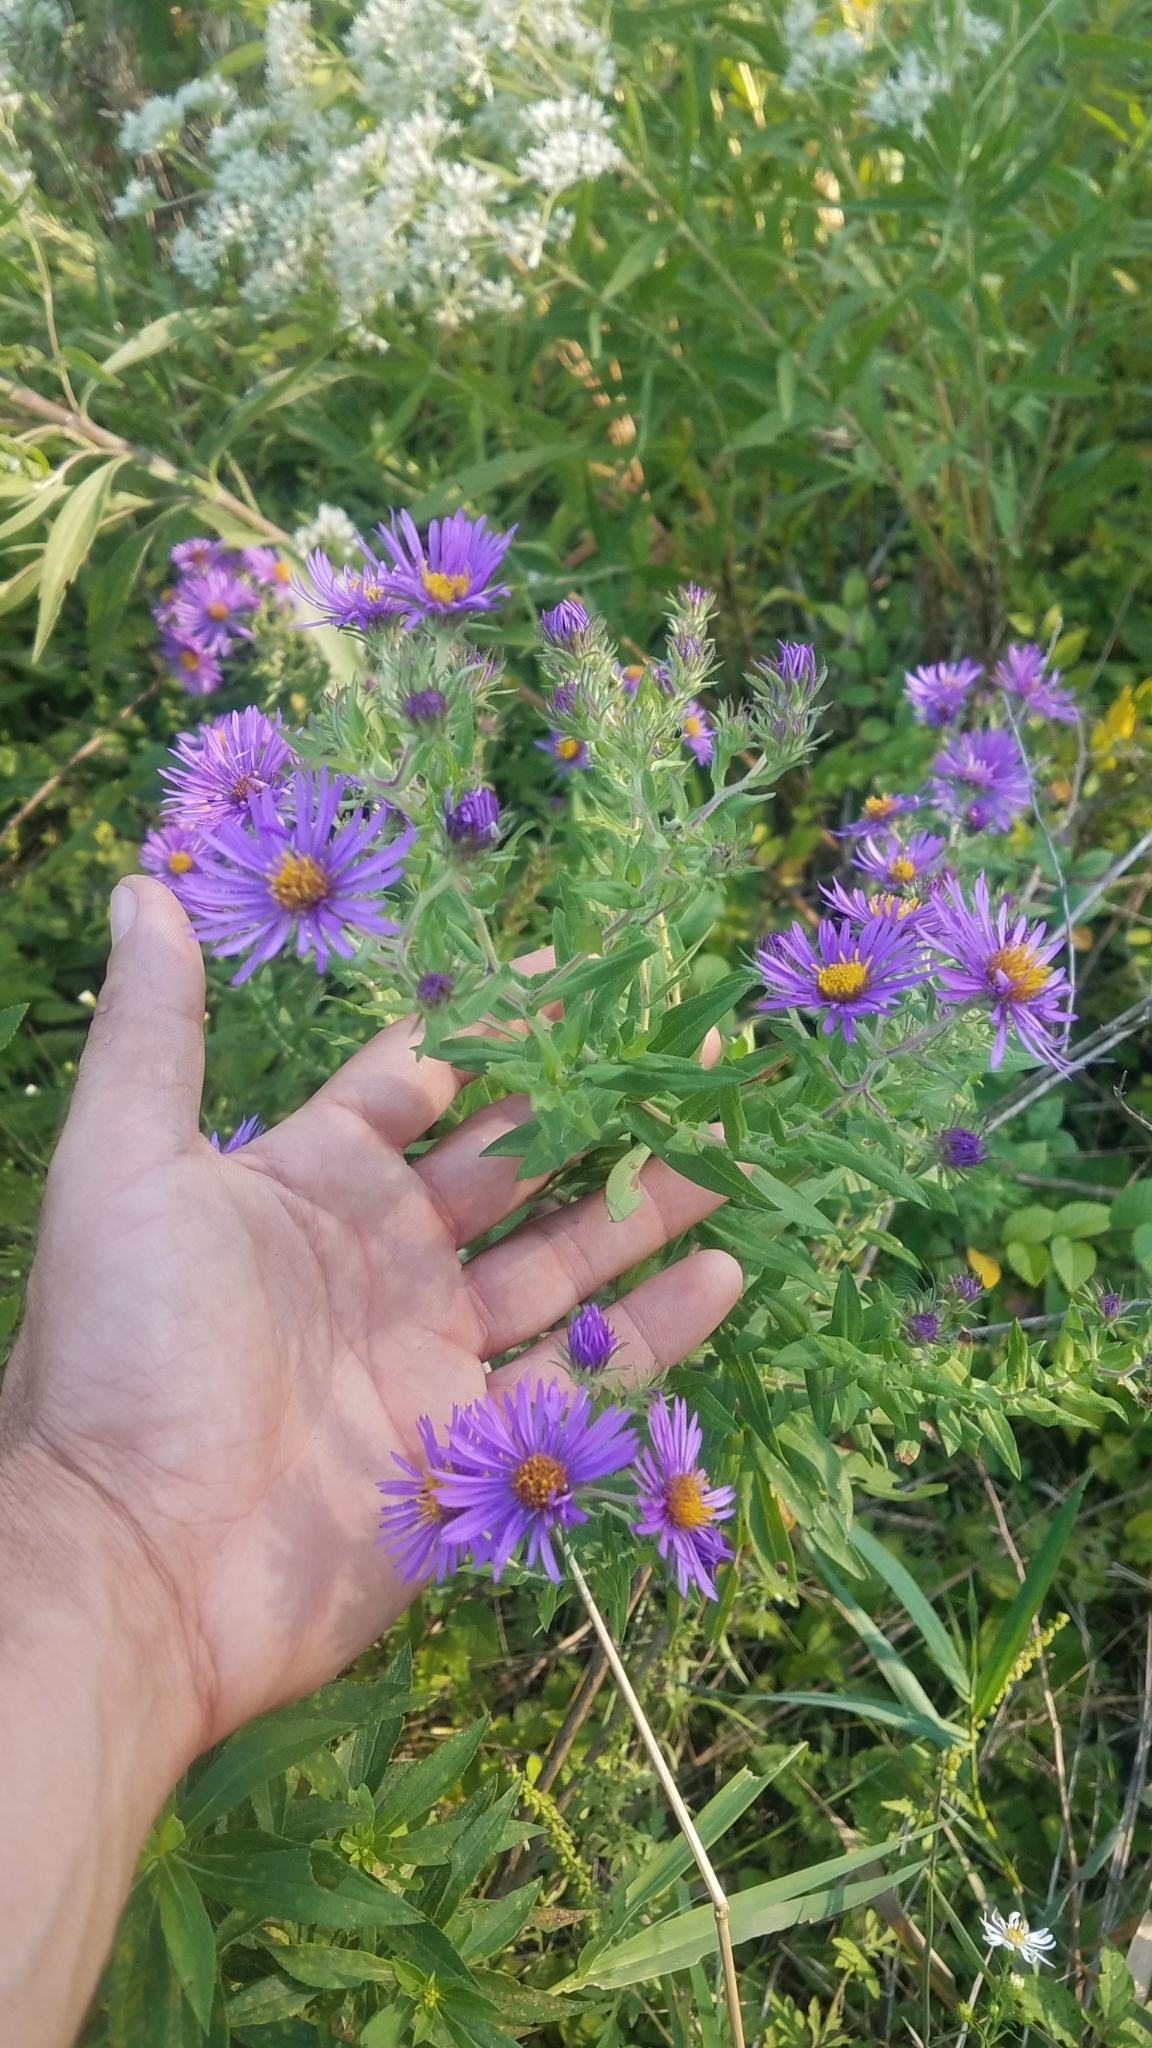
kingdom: Plantae
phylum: Tracheophyta
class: Magnoliopsida
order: Asterales
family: Asteraceae
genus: Symphyotrichum
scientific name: Symphyotrichum novae-angliae
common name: Michaelmas daisy
